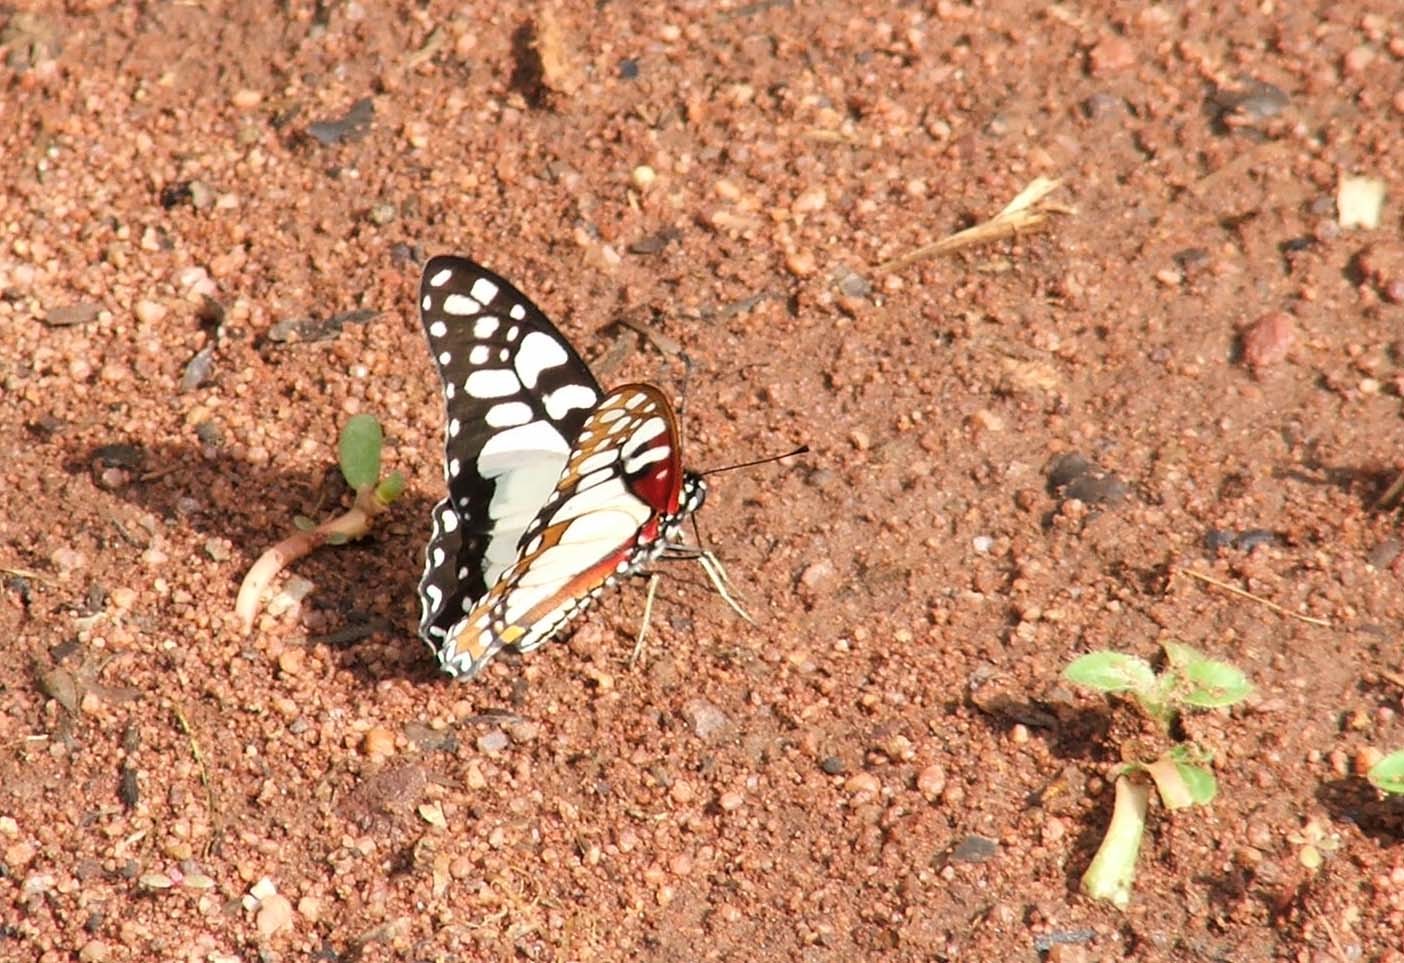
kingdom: Animalia
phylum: Arthropoda
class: Insecta
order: Lepidoptera
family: Papilionidae
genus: Graphium
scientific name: Graphium morania
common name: Small white-lady swordtail
